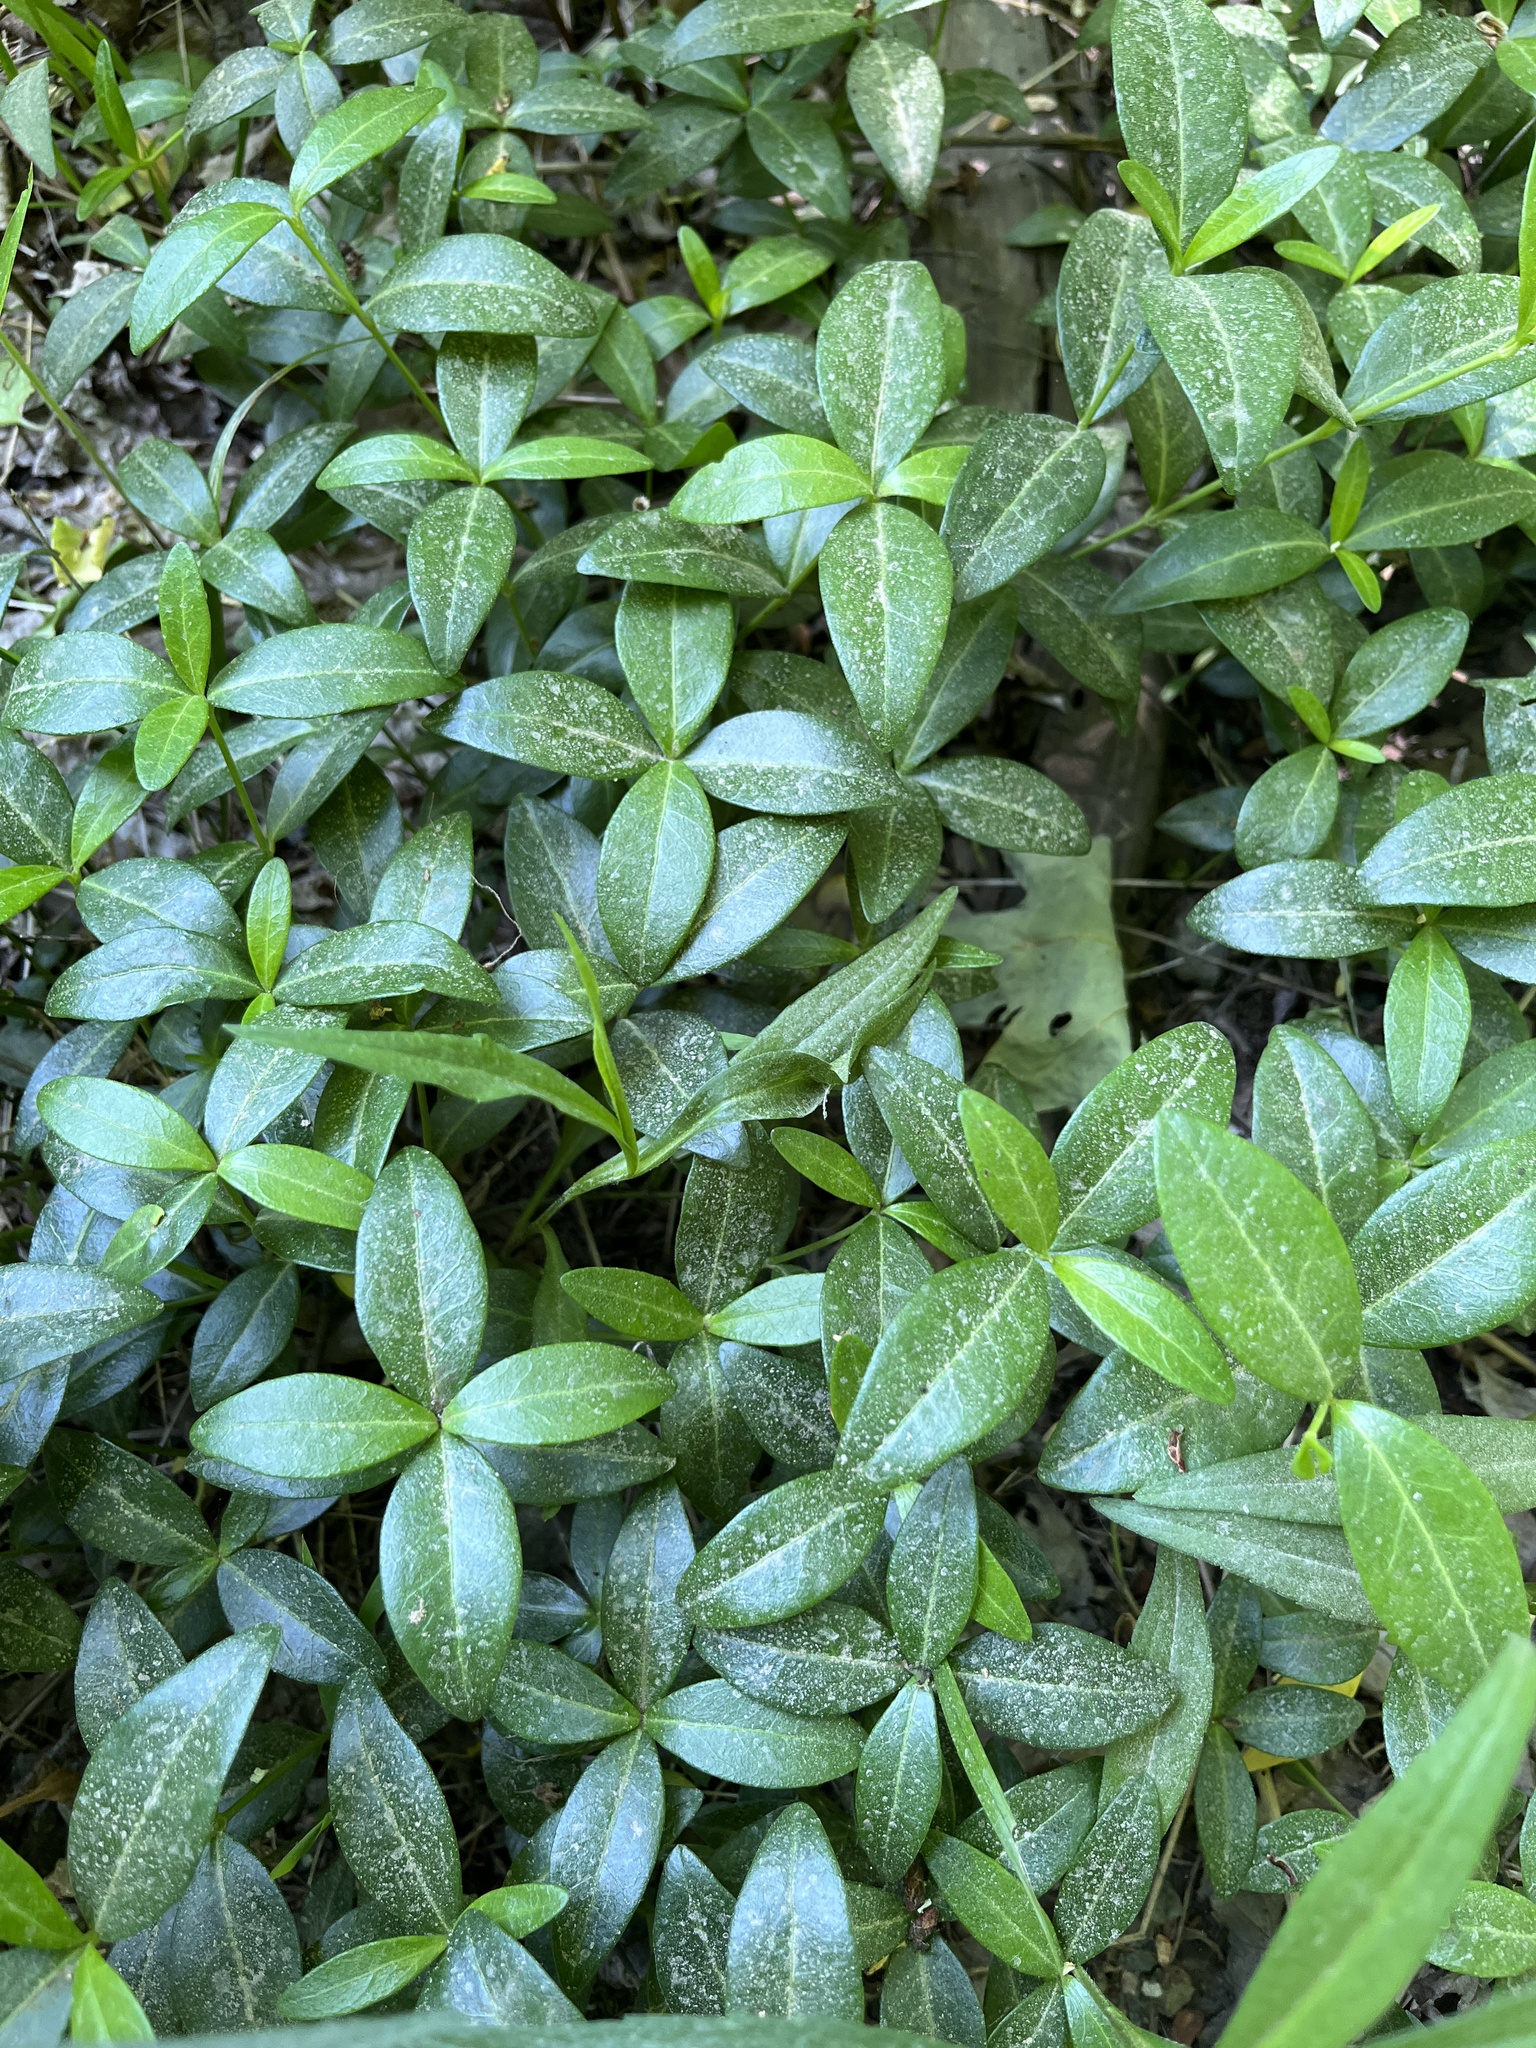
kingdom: Plantae
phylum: Tracheophyta
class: Magnoliopsida
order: Gentianales
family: Apocynaceae
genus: Vinca
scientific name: Vinca minor
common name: Lesser periwinkle
